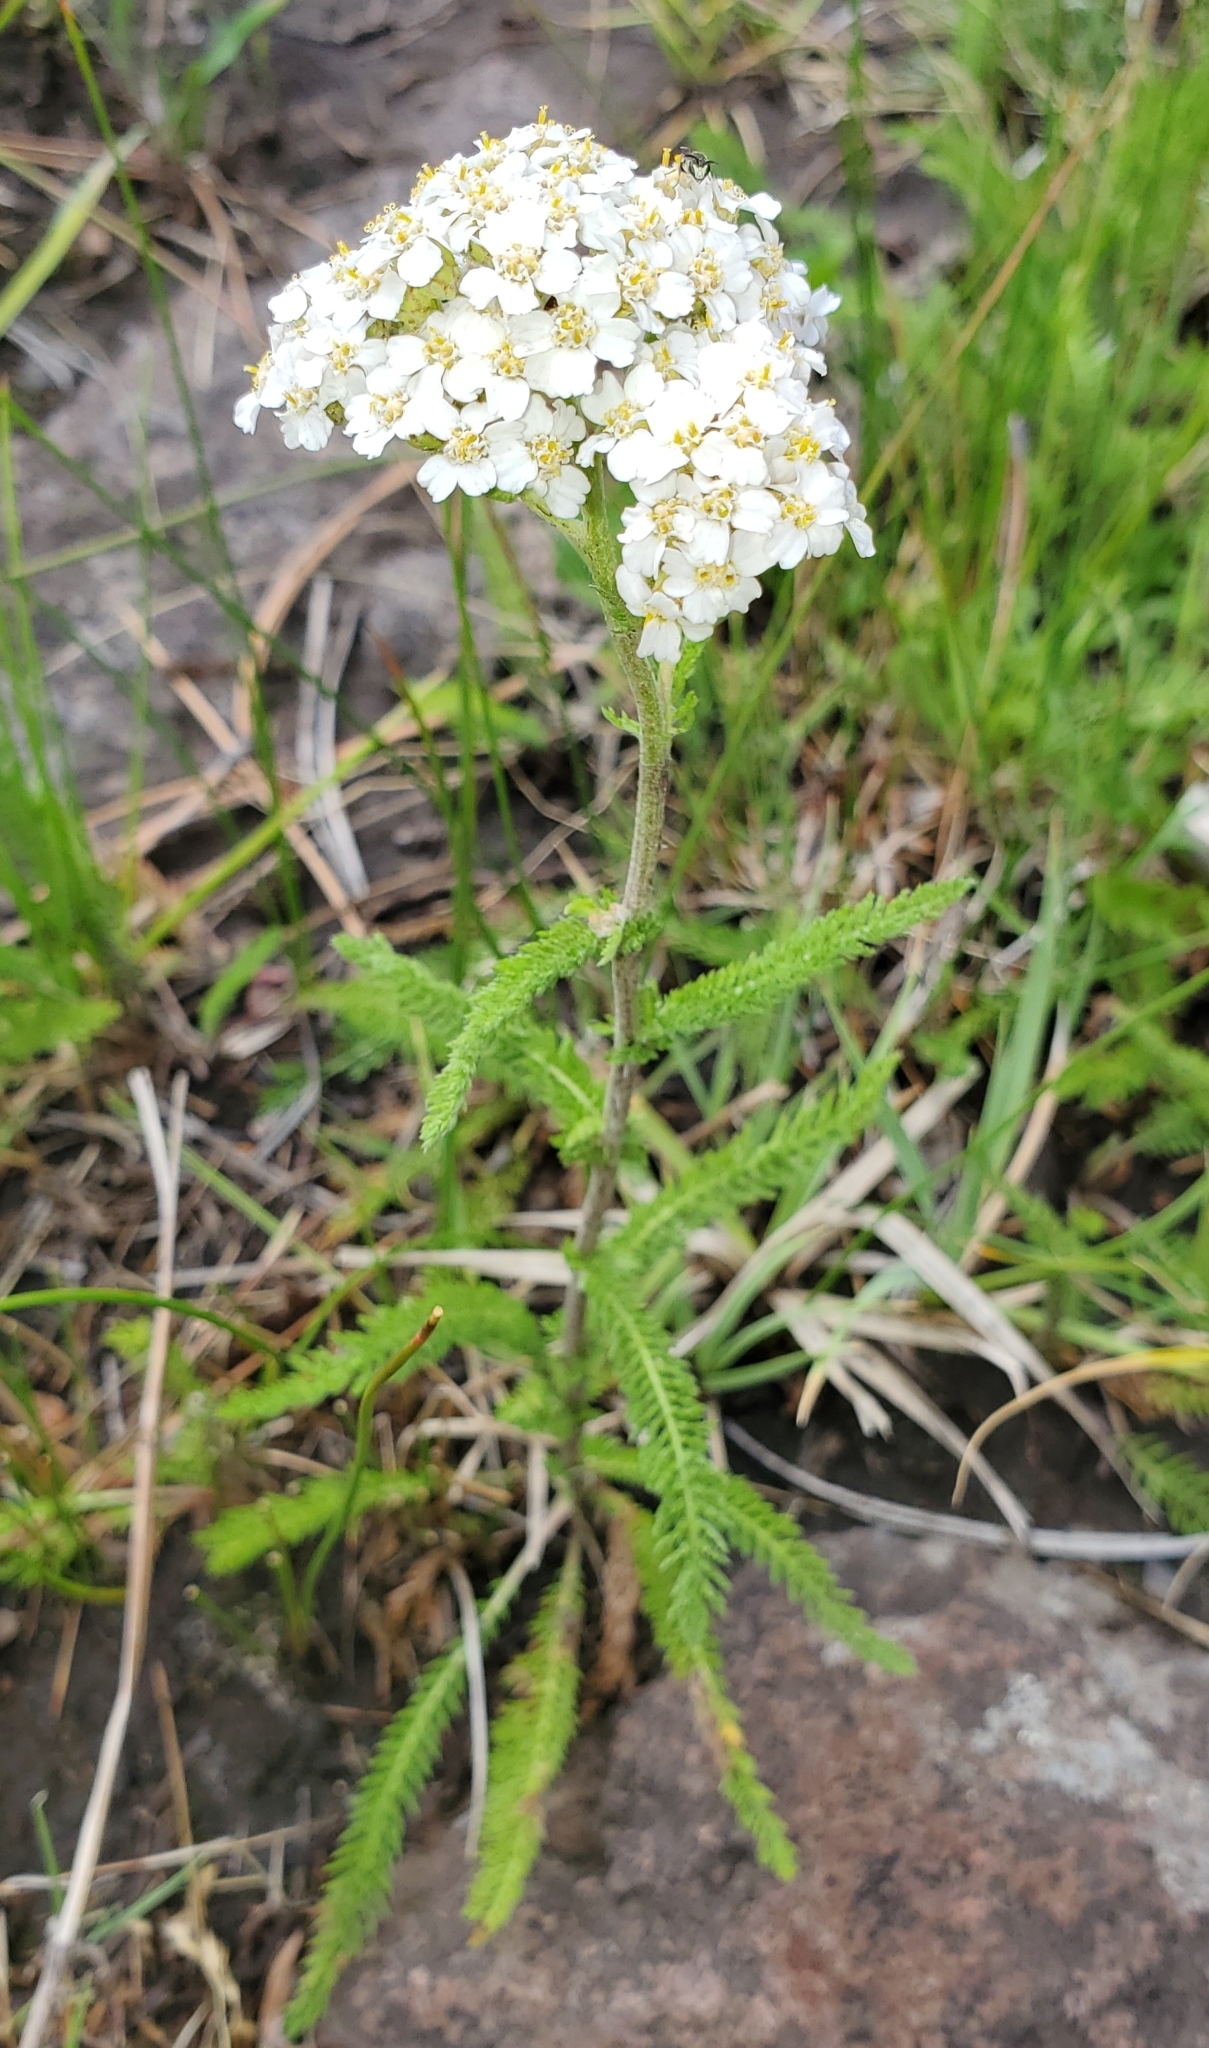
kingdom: Plantae
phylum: Tracheophyta
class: Magnoliopsida
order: Asterales
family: Asteraceae
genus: Achillea
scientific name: Achillea millefolium
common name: Yarrow
